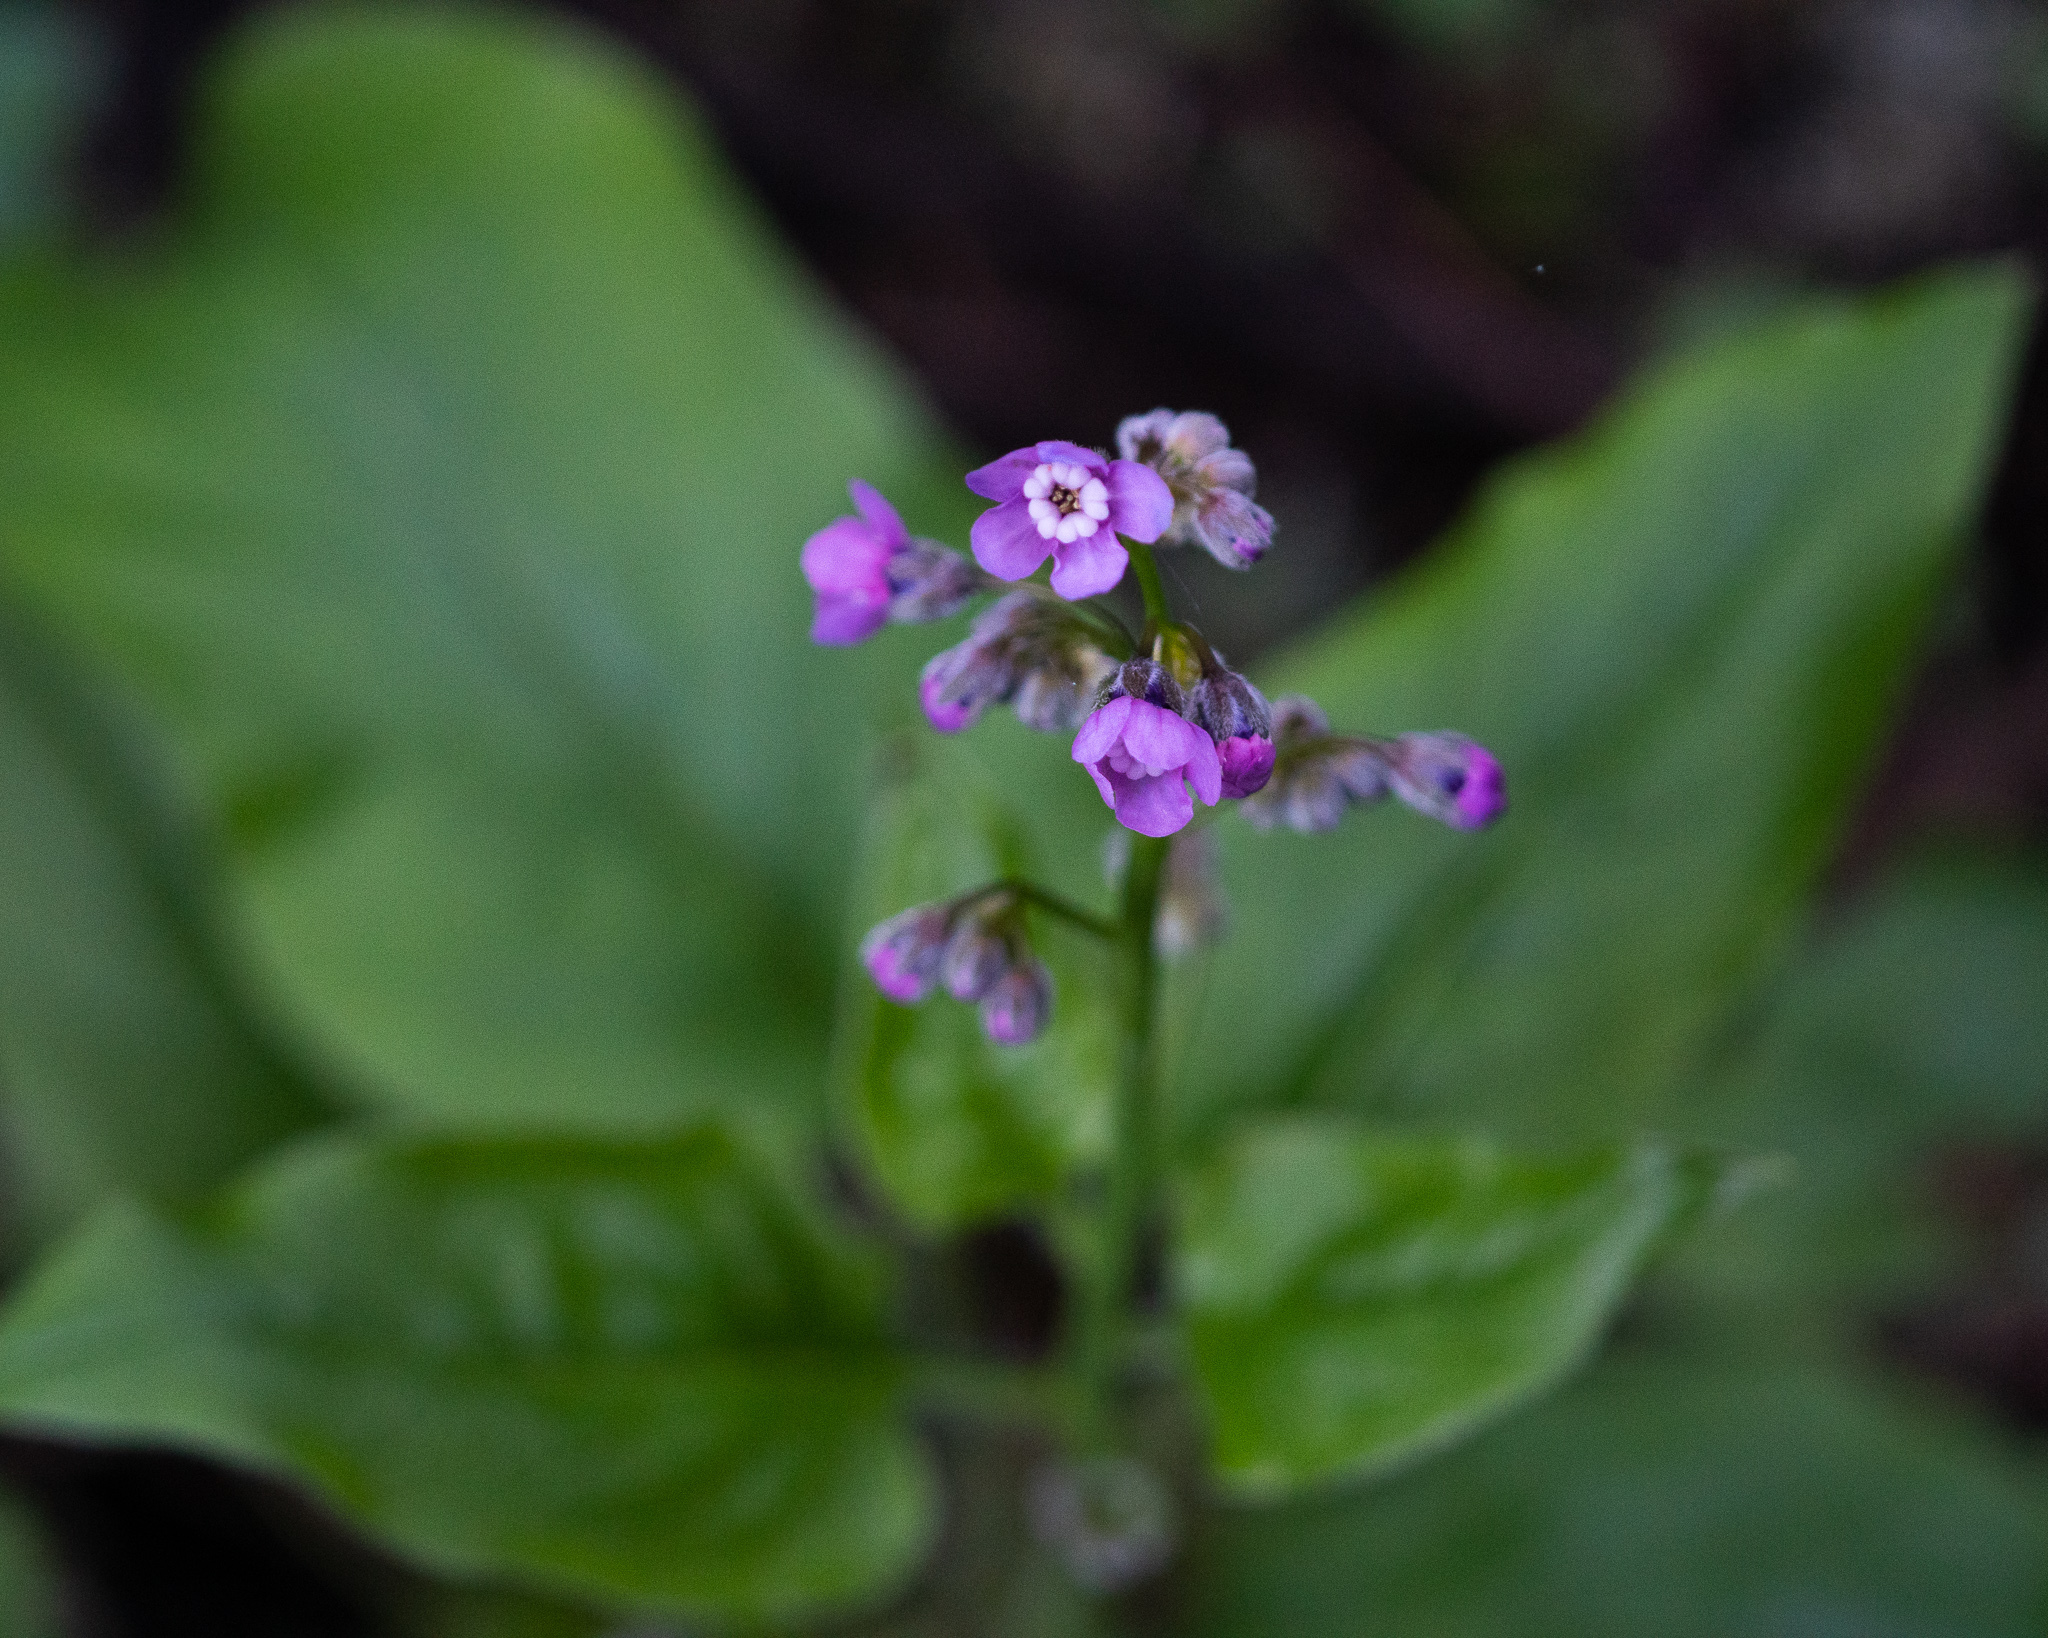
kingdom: Plantae
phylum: Tracheophyta
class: Magnoliopsida
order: Boraginales
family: Boraginaceae
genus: Adelinia
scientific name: Adelinia grande
